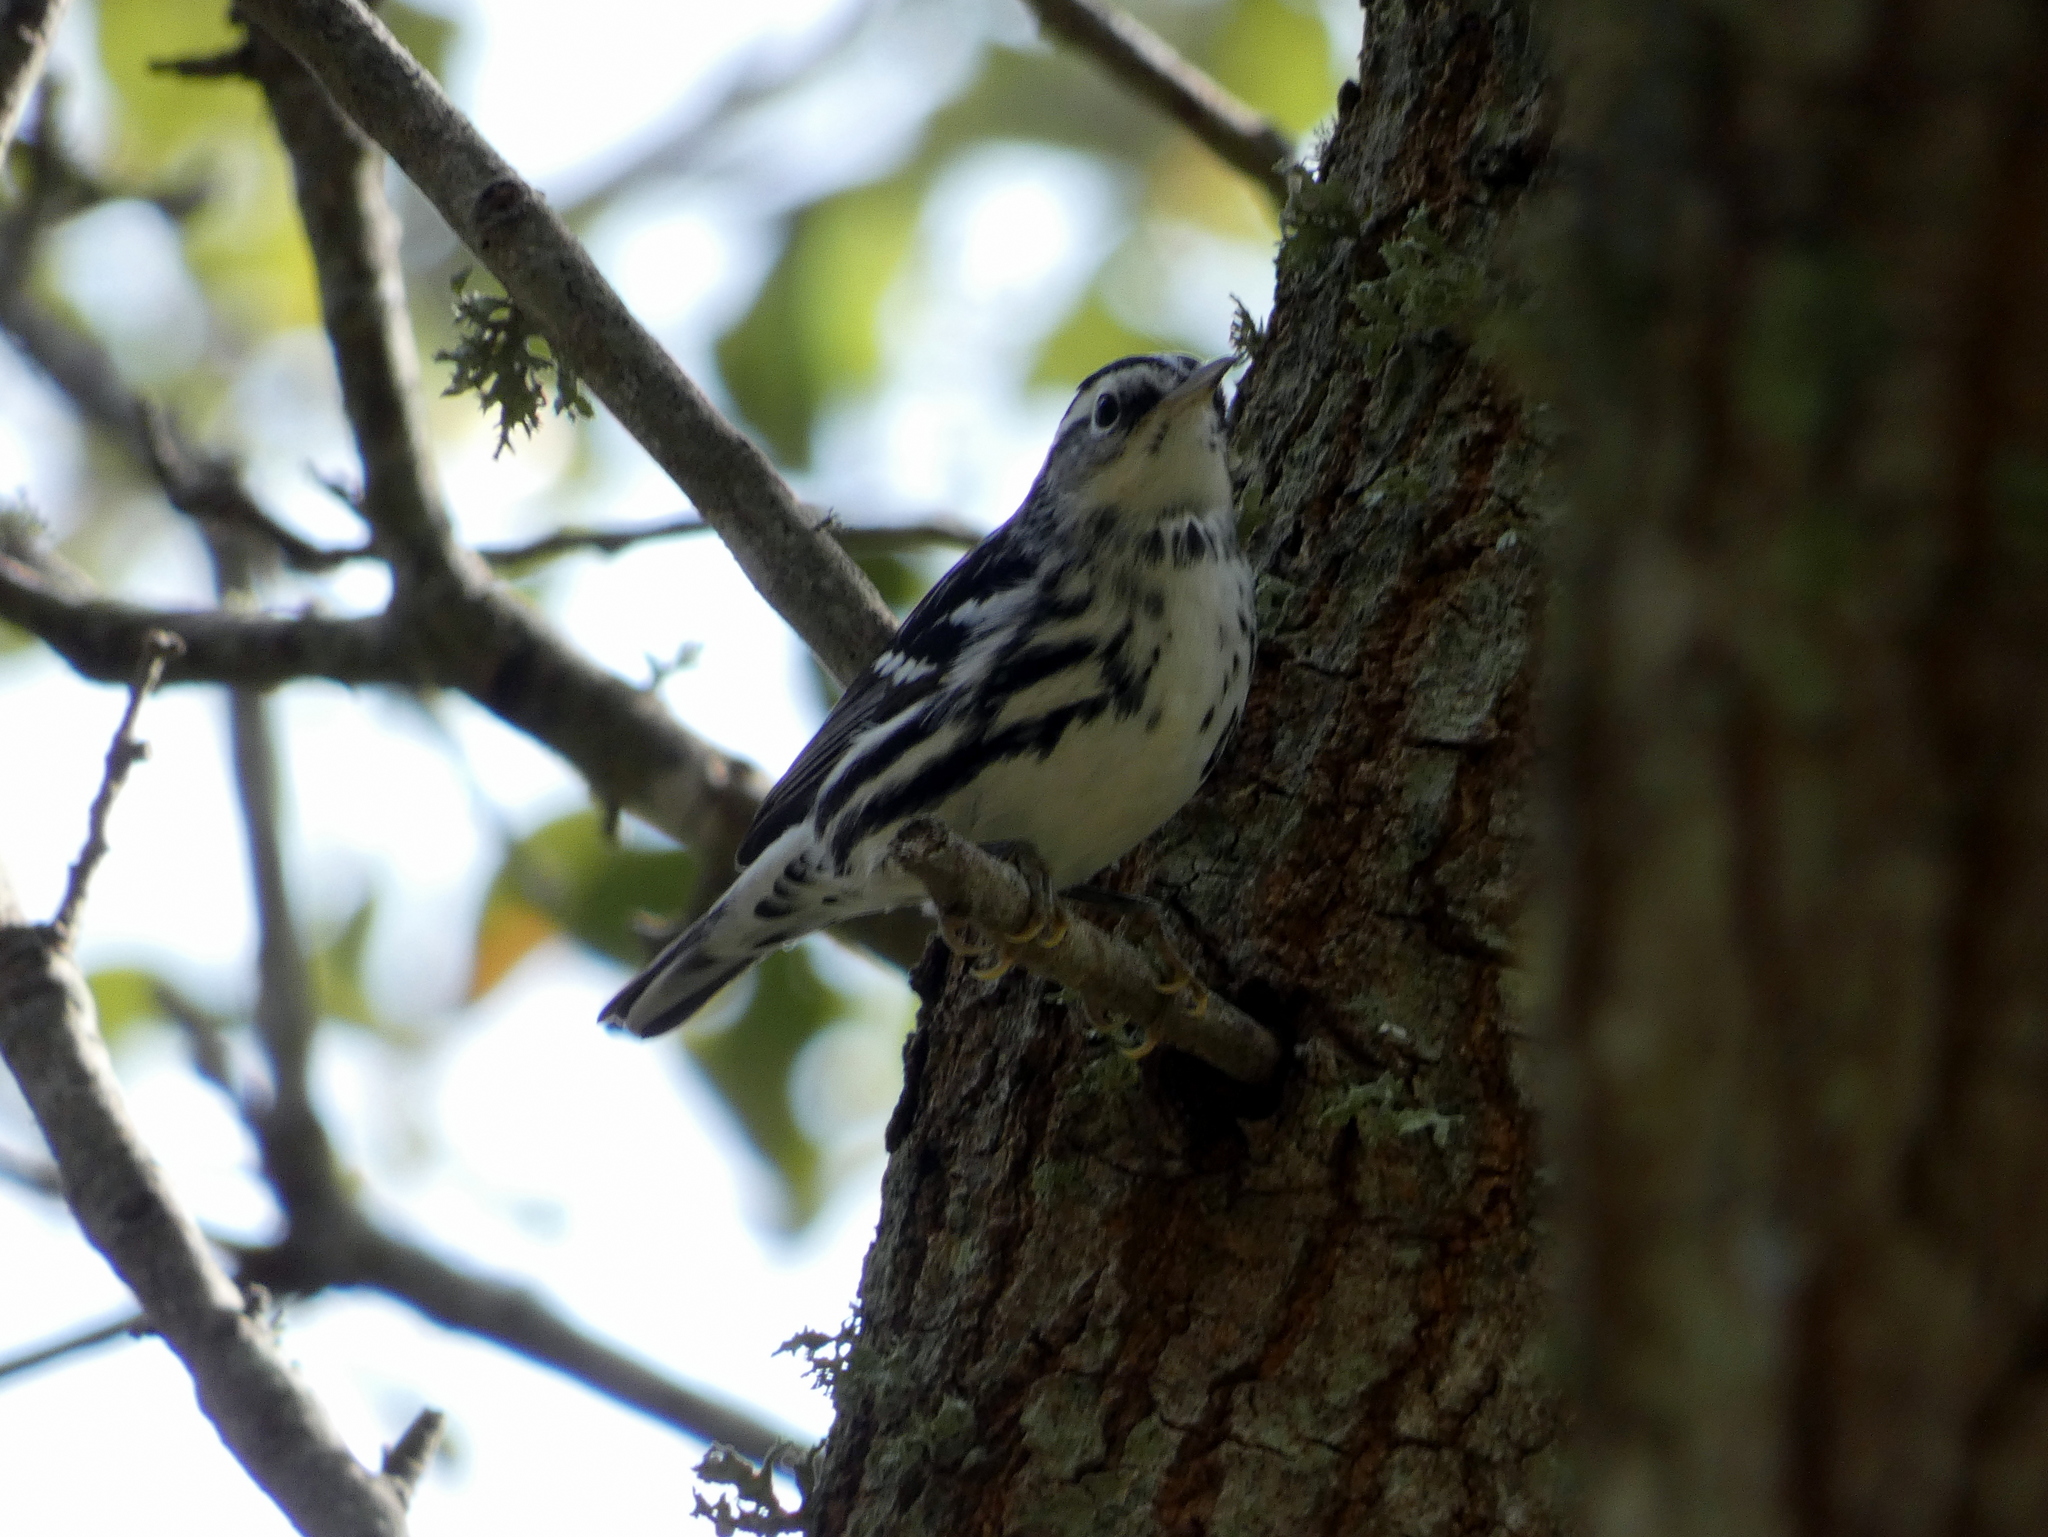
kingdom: Animalia
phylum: Chordata
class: Aves
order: Passeriformes
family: Parulidae
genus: Mniotilta
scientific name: Mniotilta varia
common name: Black-and-white warbler
